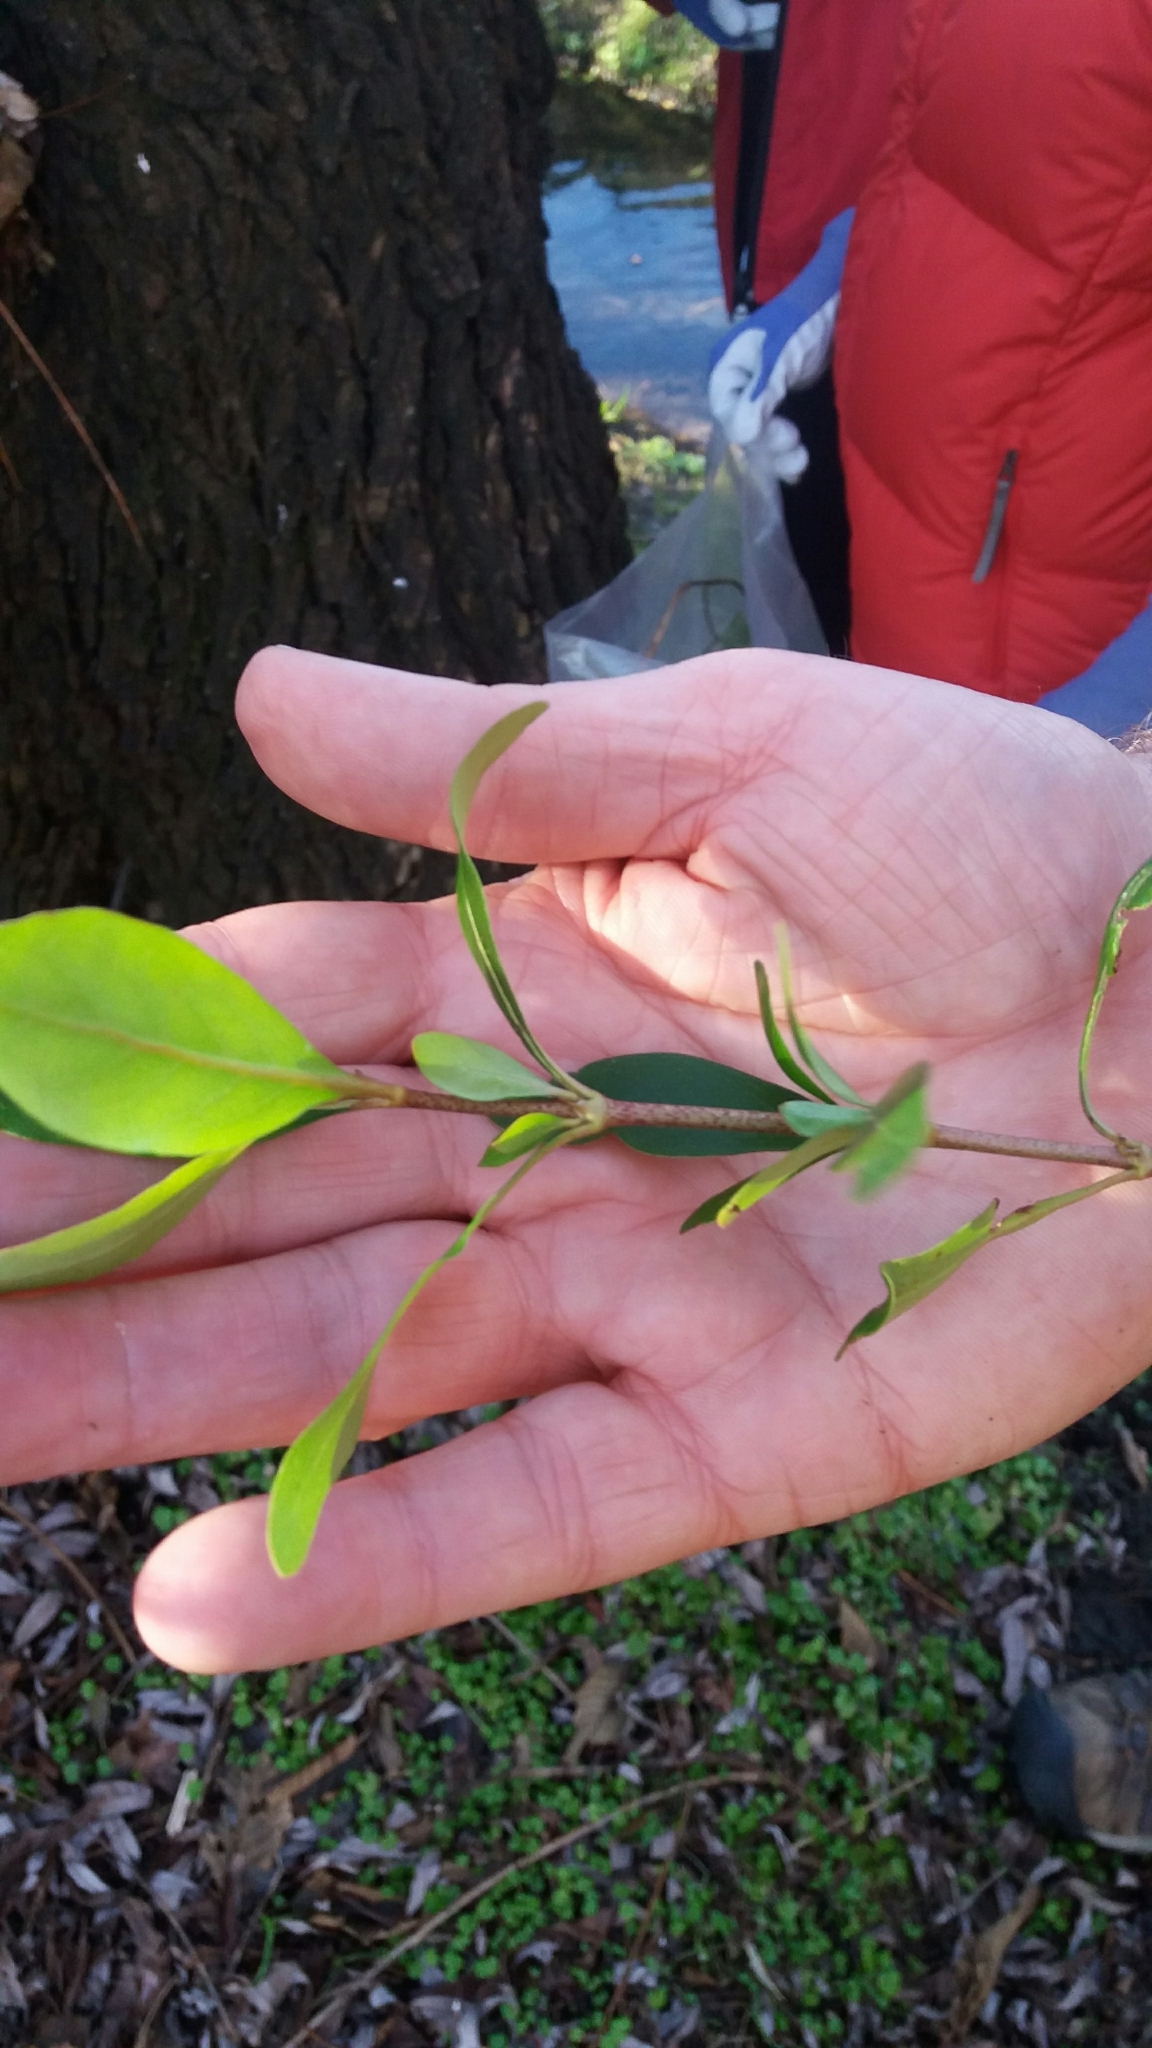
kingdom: Plantae
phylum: Tracheophyta
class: Magnoliopsida
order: Malpighiales
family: Salicaceae
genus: Salix
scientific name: Salix fragilis
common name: Crack willow
